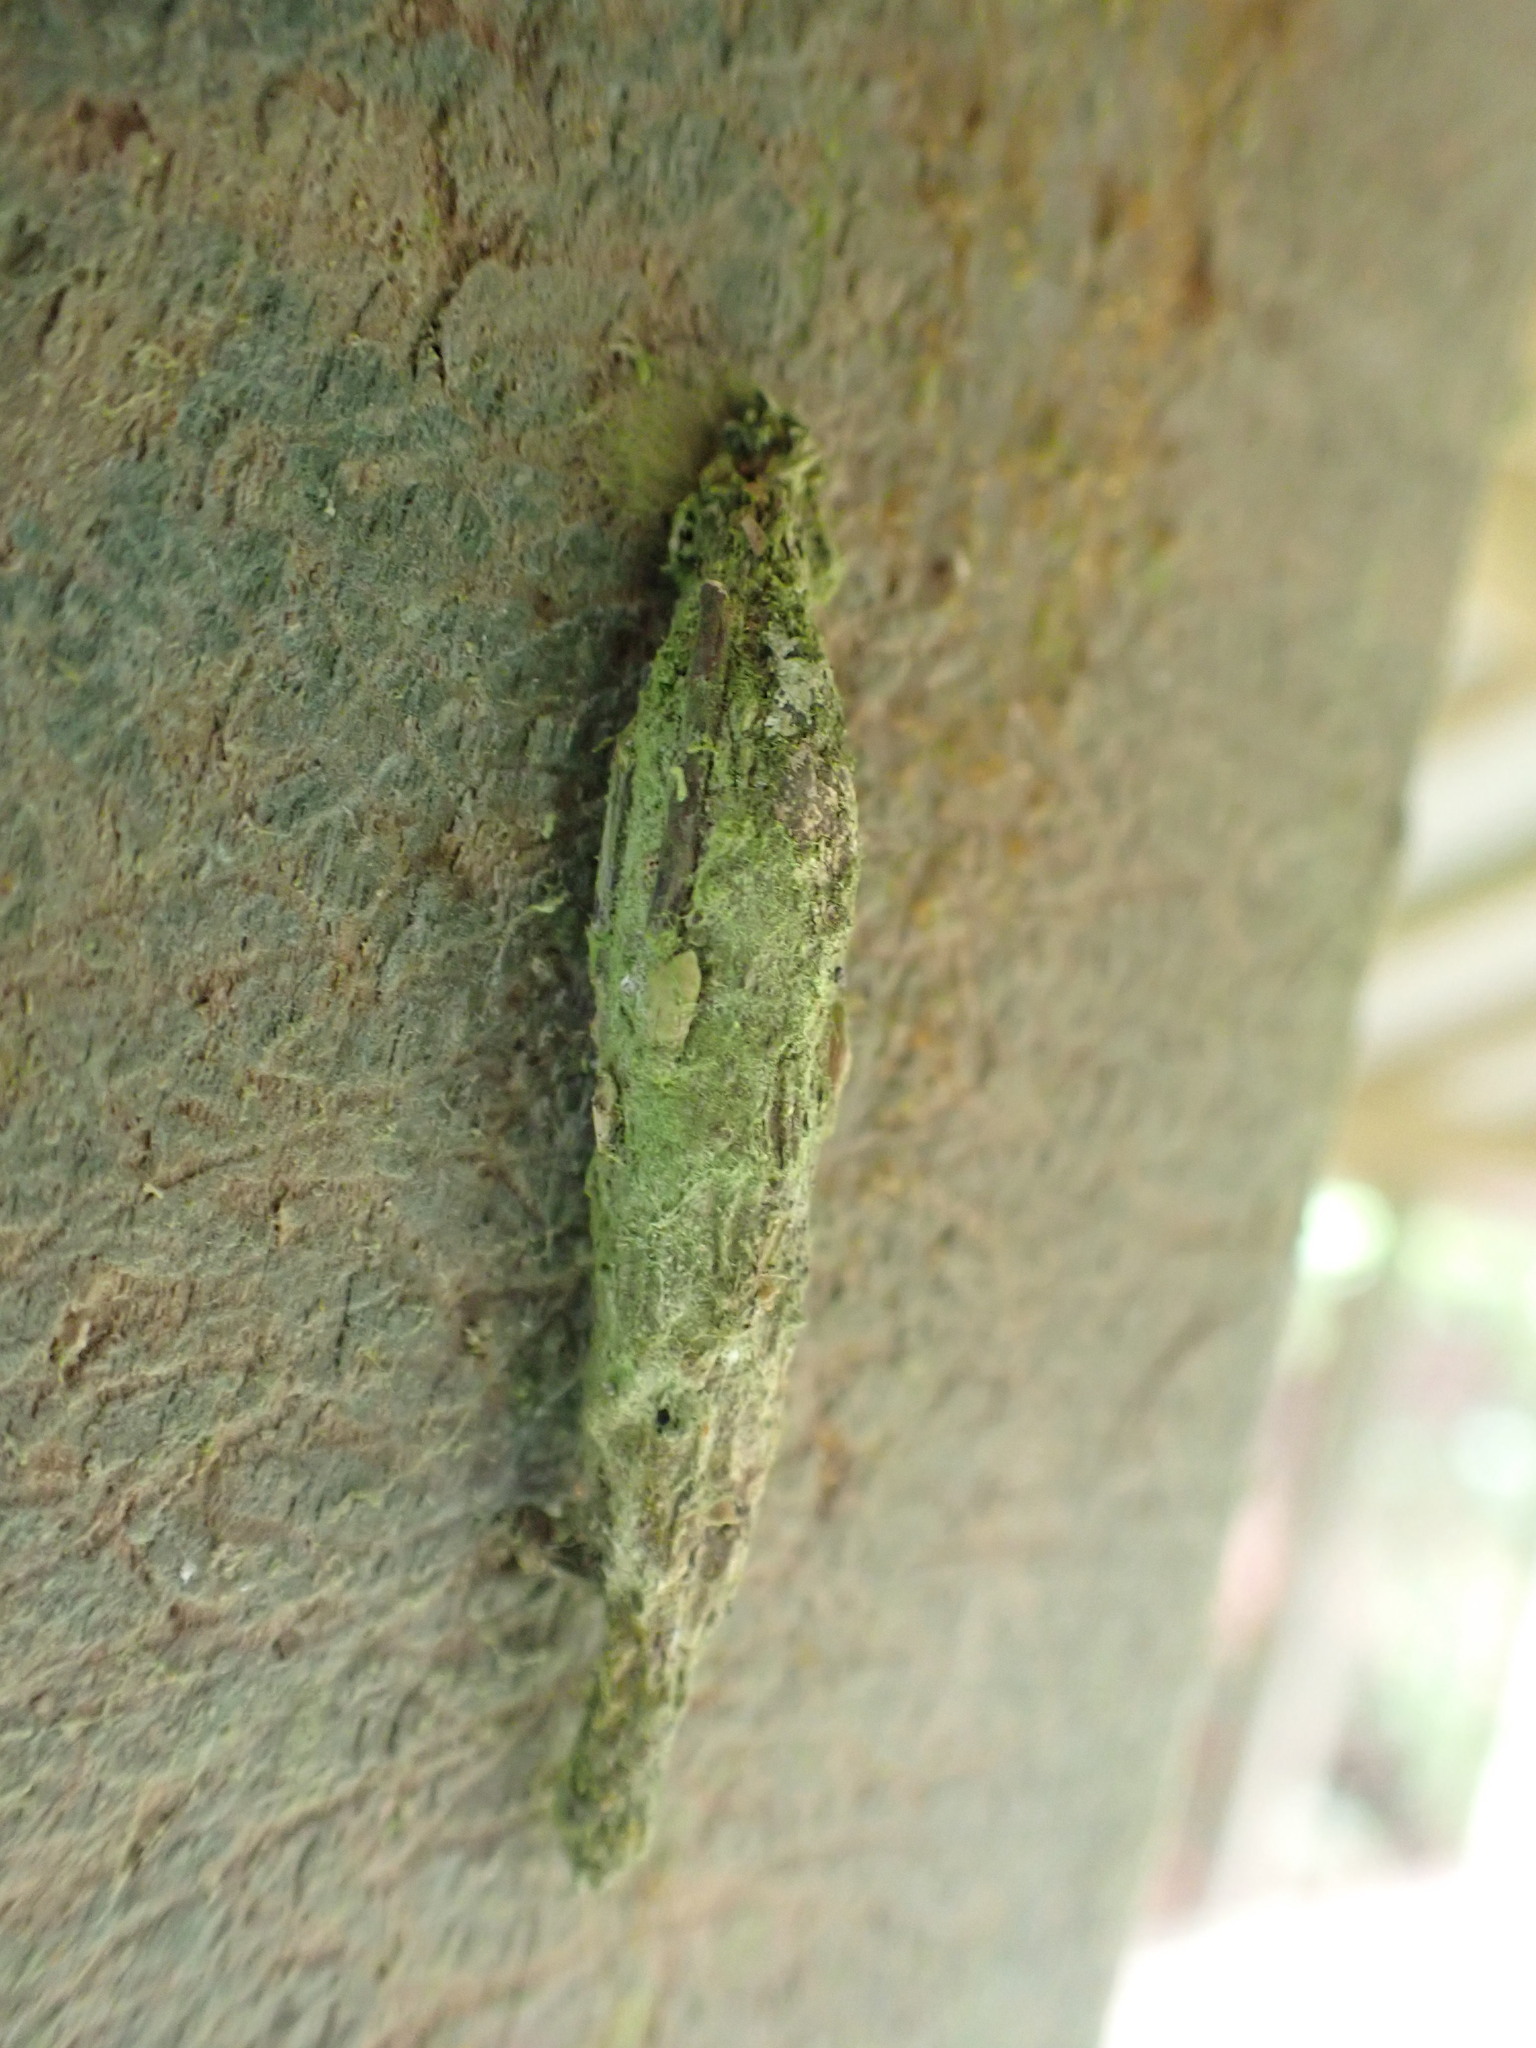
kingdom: Animalia
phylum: Arthropoda
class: Insecta
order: Lepidoptera
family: Psychidae
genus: Liothula
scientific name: Liothula omnivora
